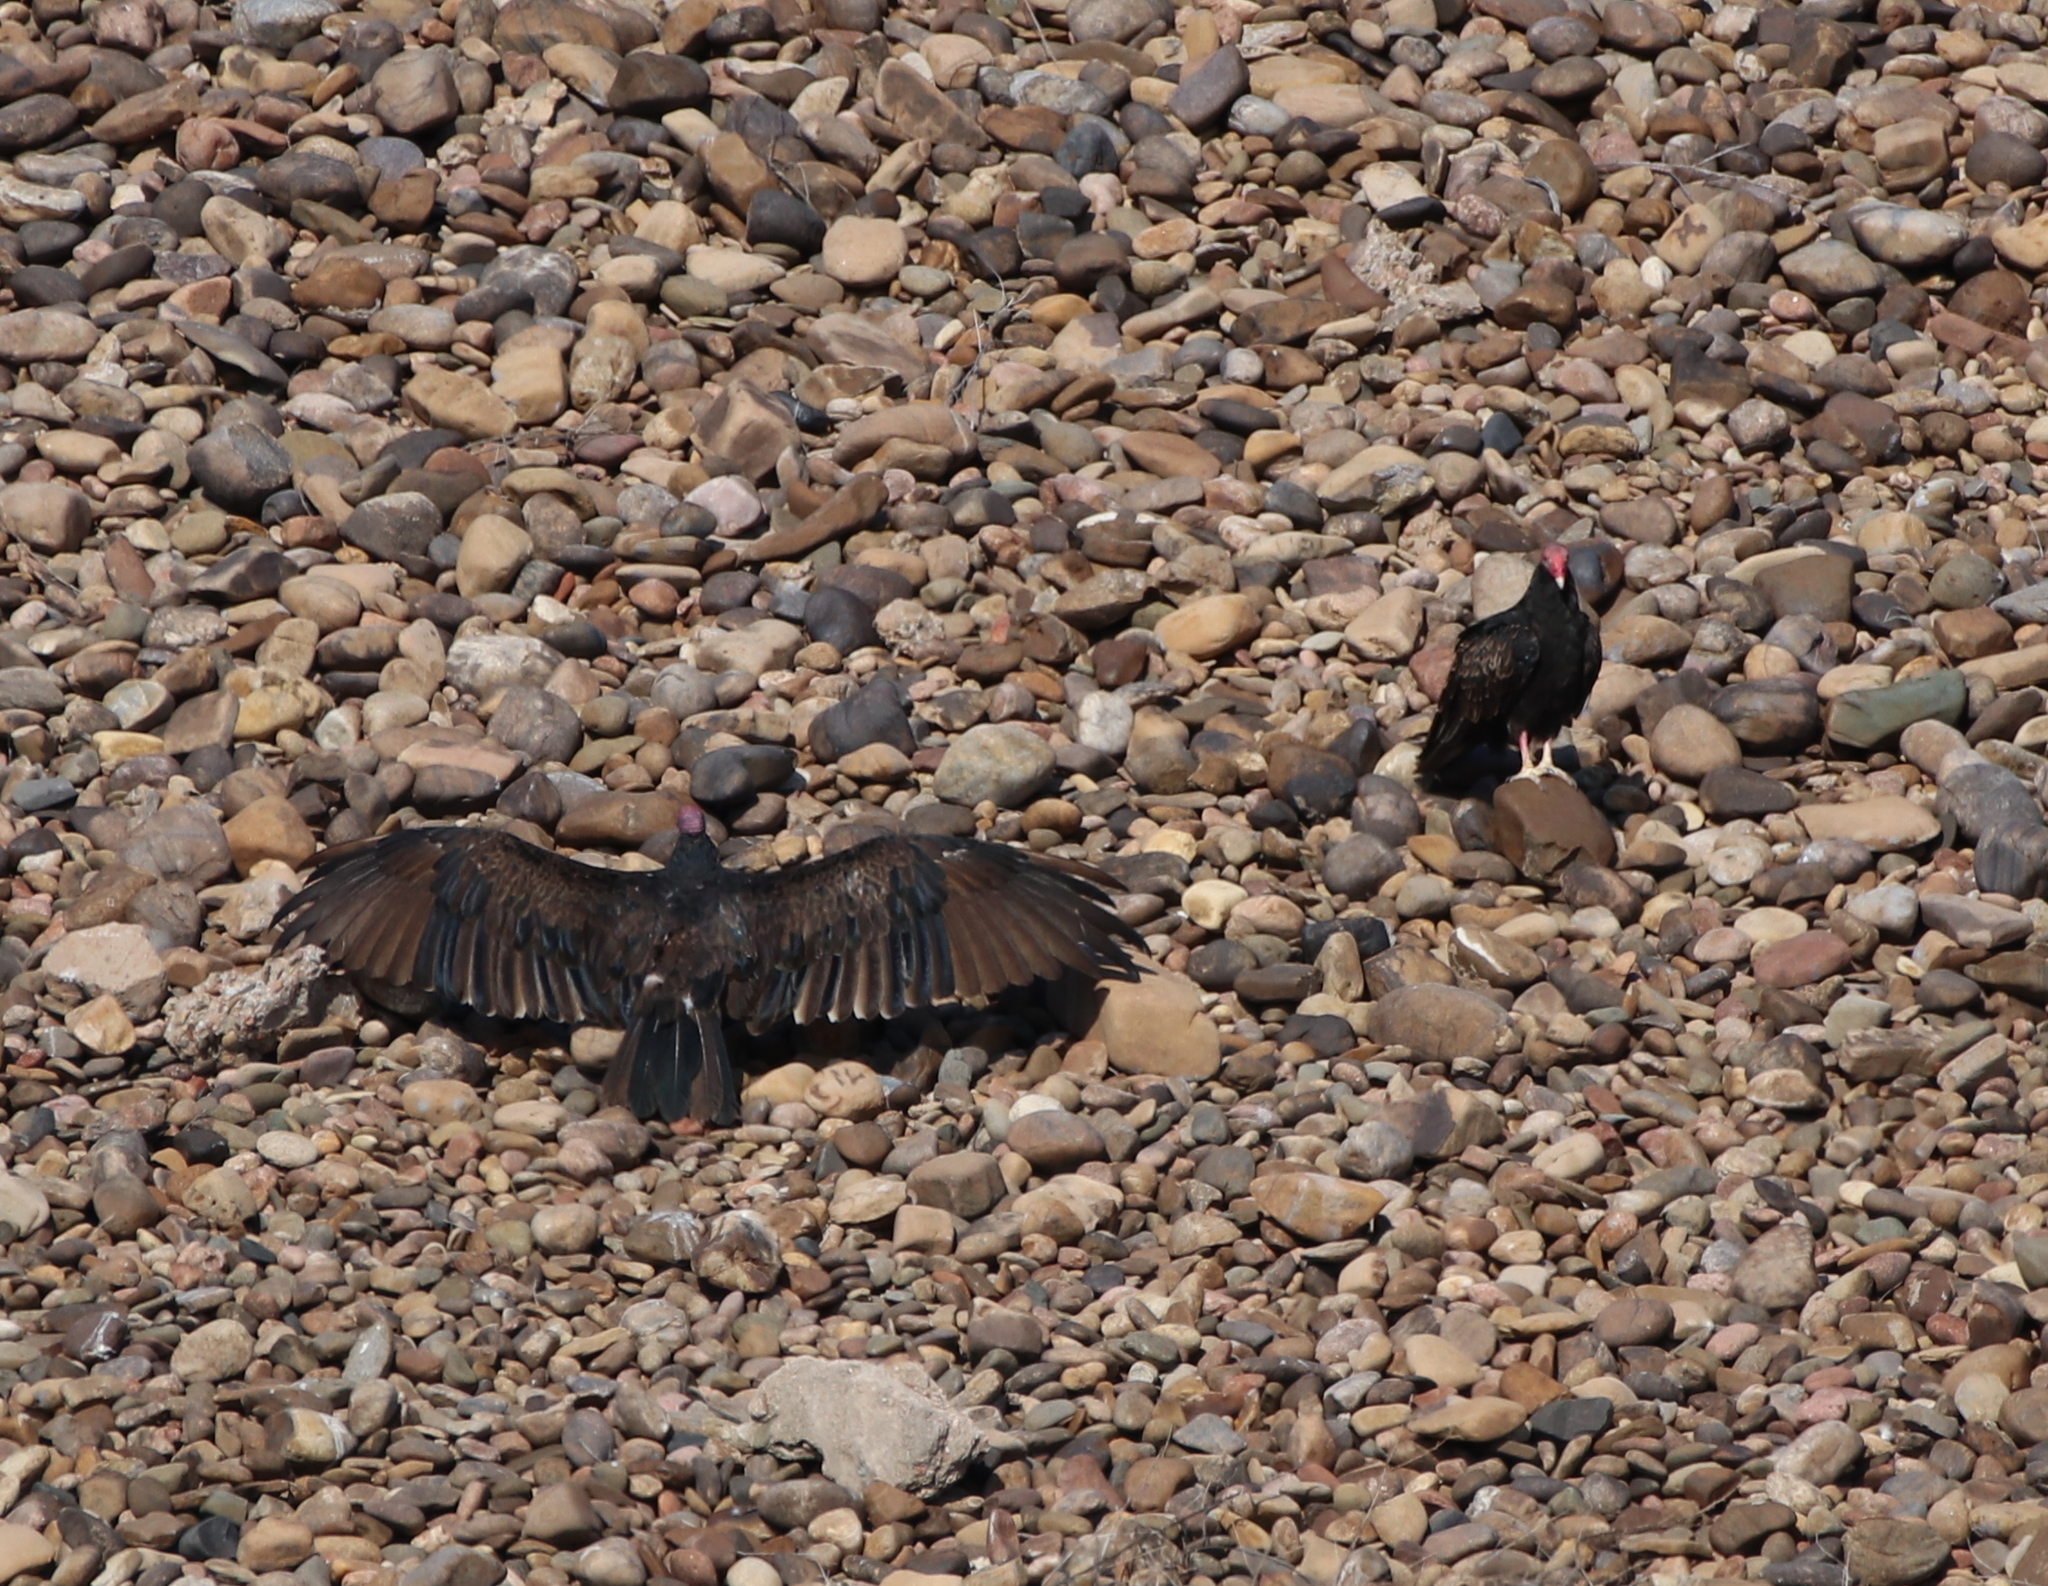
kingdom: Animalia
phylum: Chordata
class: Aves
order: Accipitriformes
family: Cathartidae
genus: Cathartes
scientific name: Cathartes aura
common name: Turkey vulture
